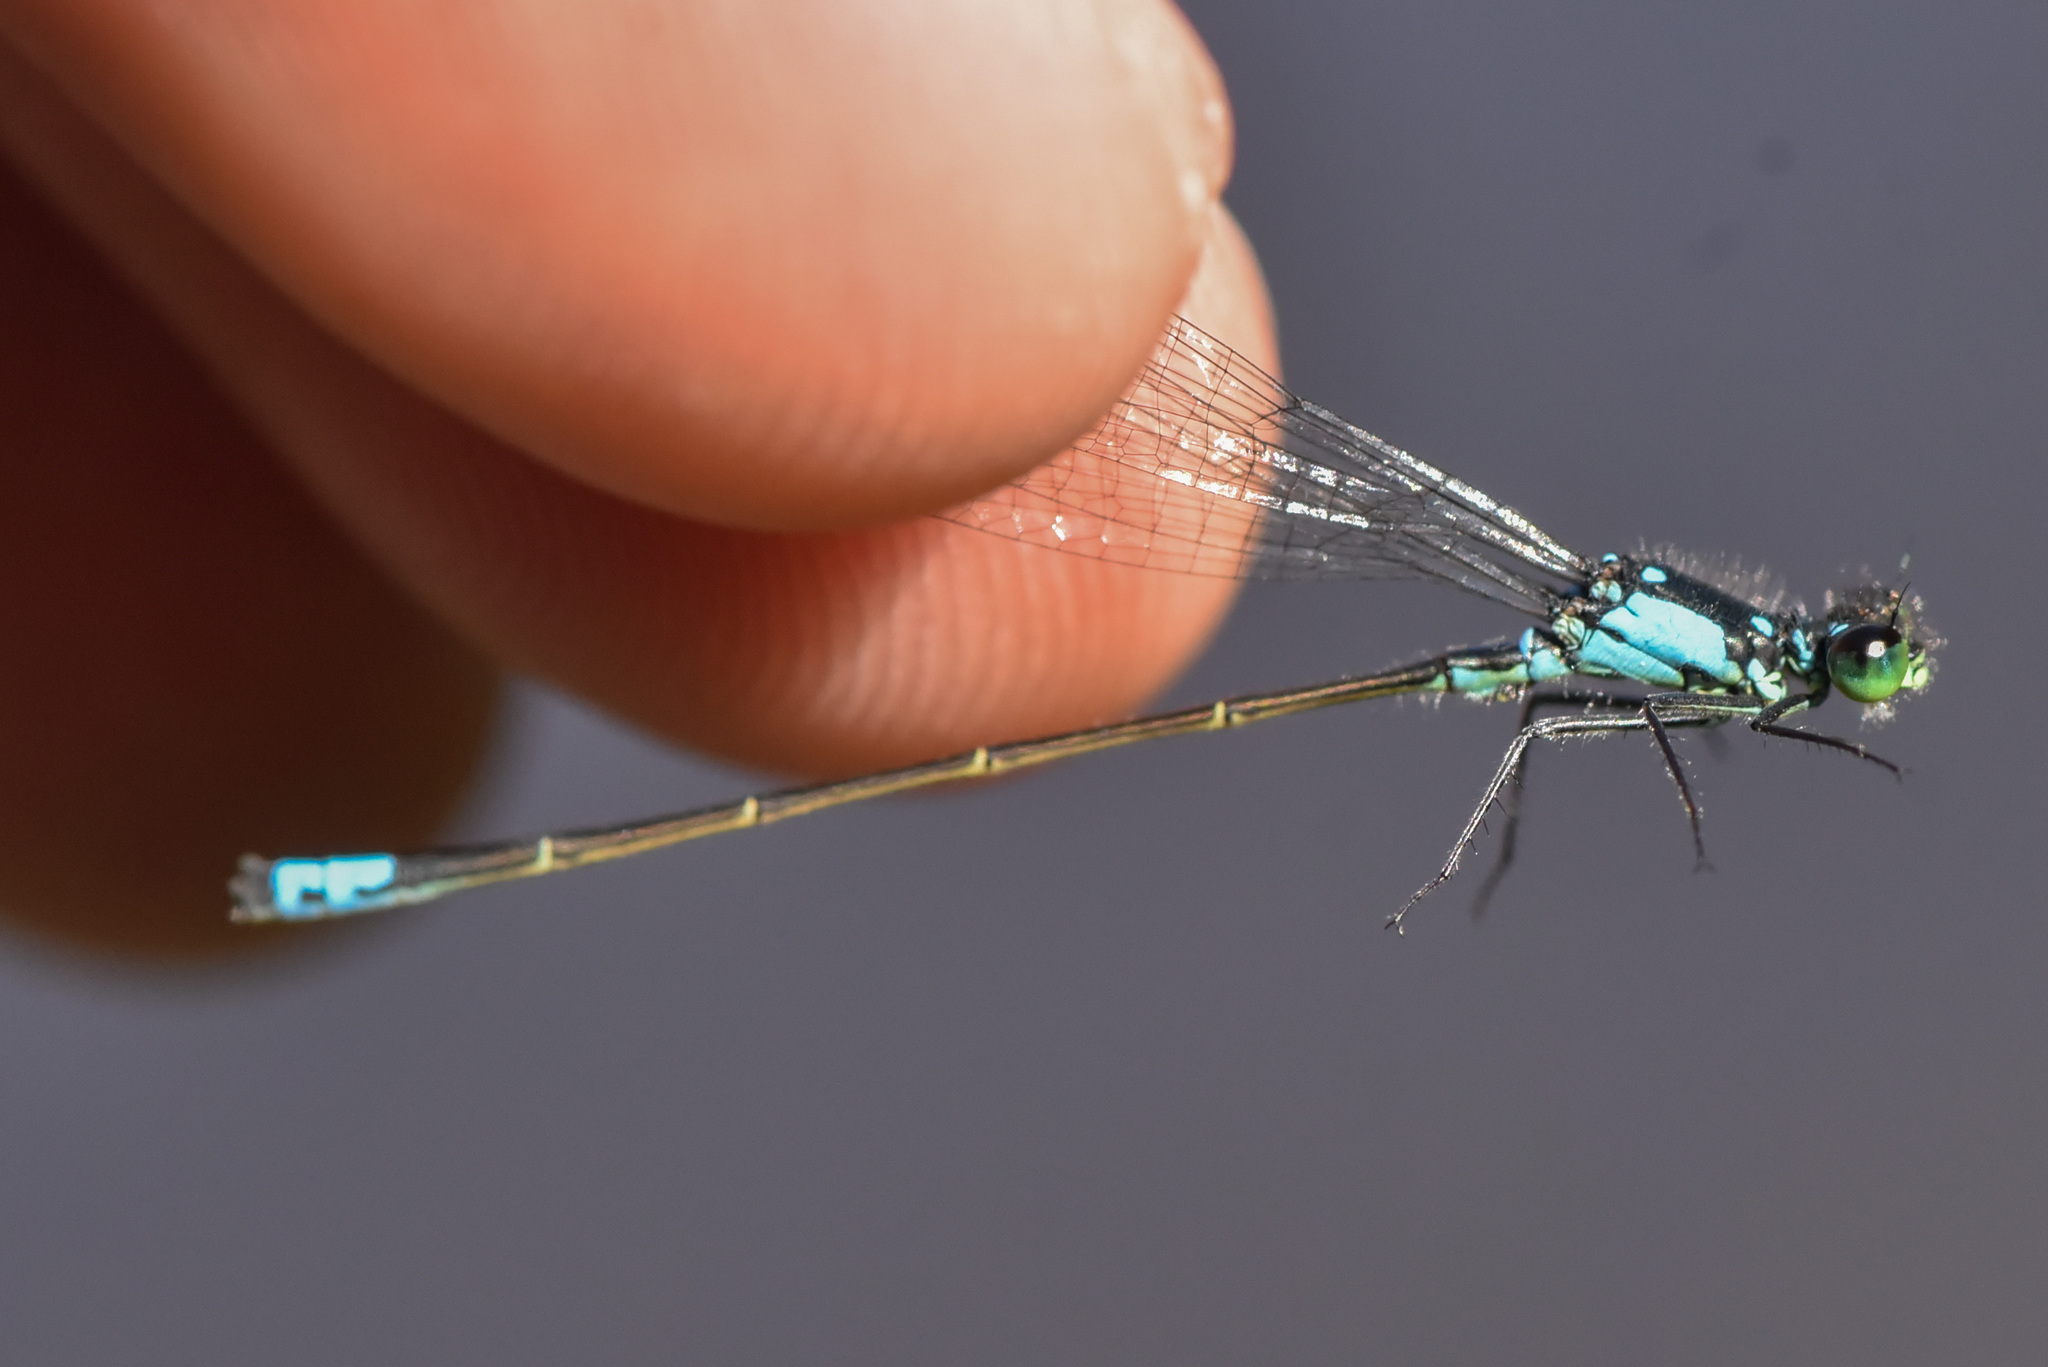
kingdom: Animalia
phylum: Arthropoda
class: Insecta
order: Odonata
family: Coenagrionidae
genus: Ischnura
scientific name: Ischnura cervula
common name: Pacific forktail
